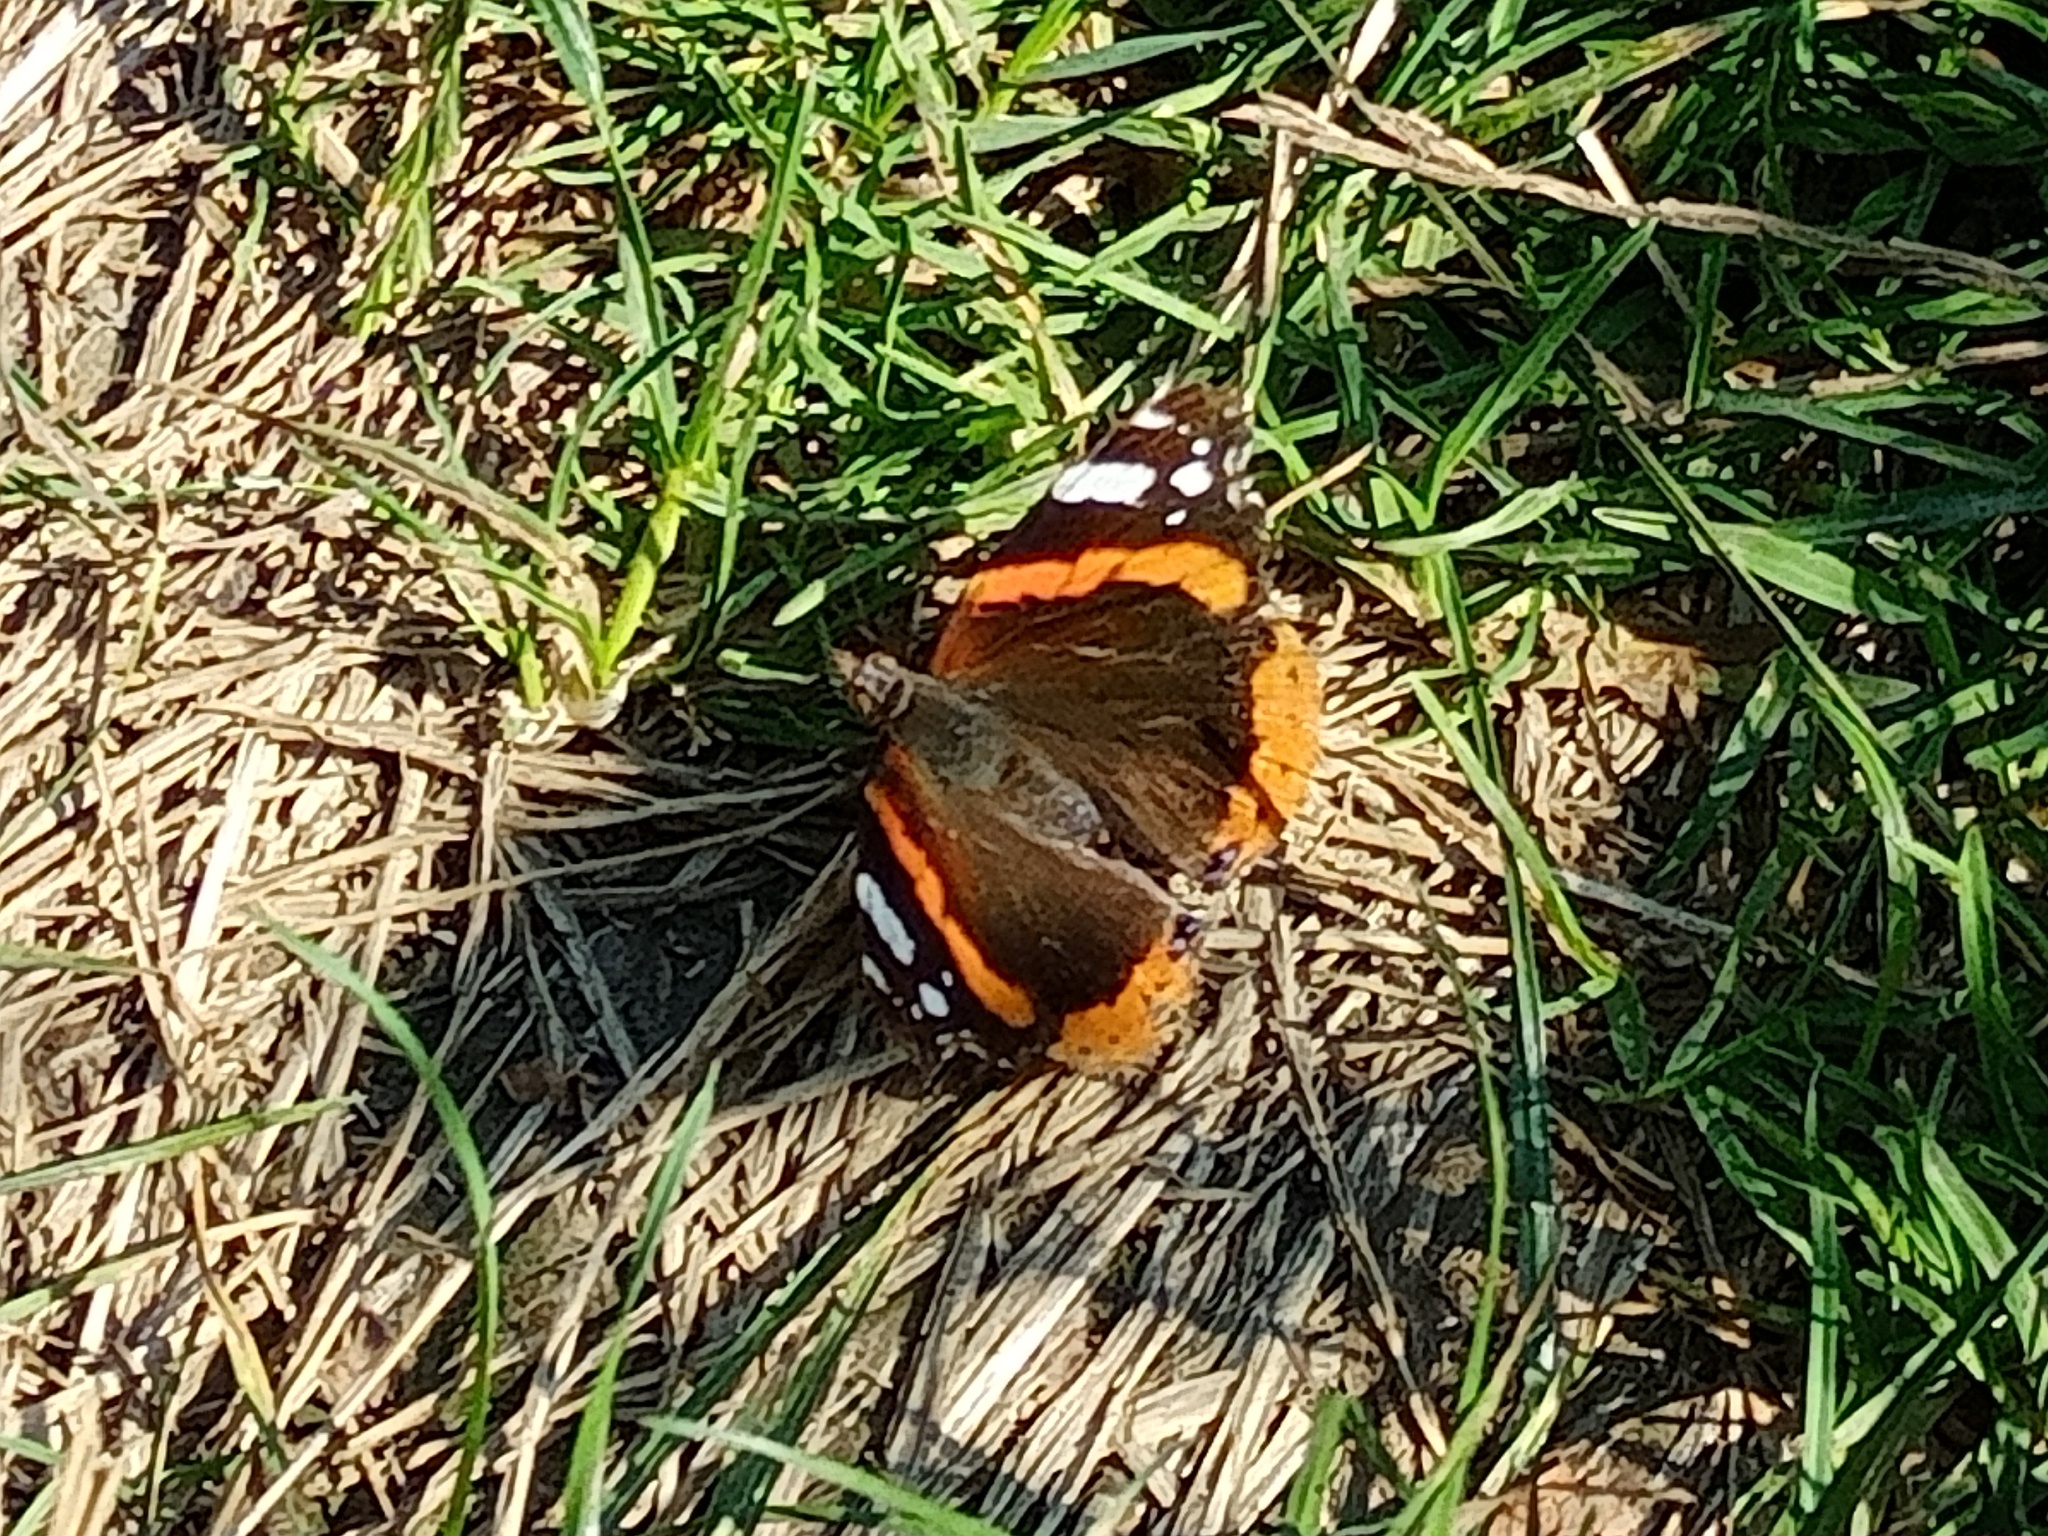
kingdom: Animalia
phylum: Arthropoda
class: Insecta
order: Lepidoptera
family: Nymphalidae
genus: Vanessa
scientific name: Vanessa atalanta
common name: Red admiral
